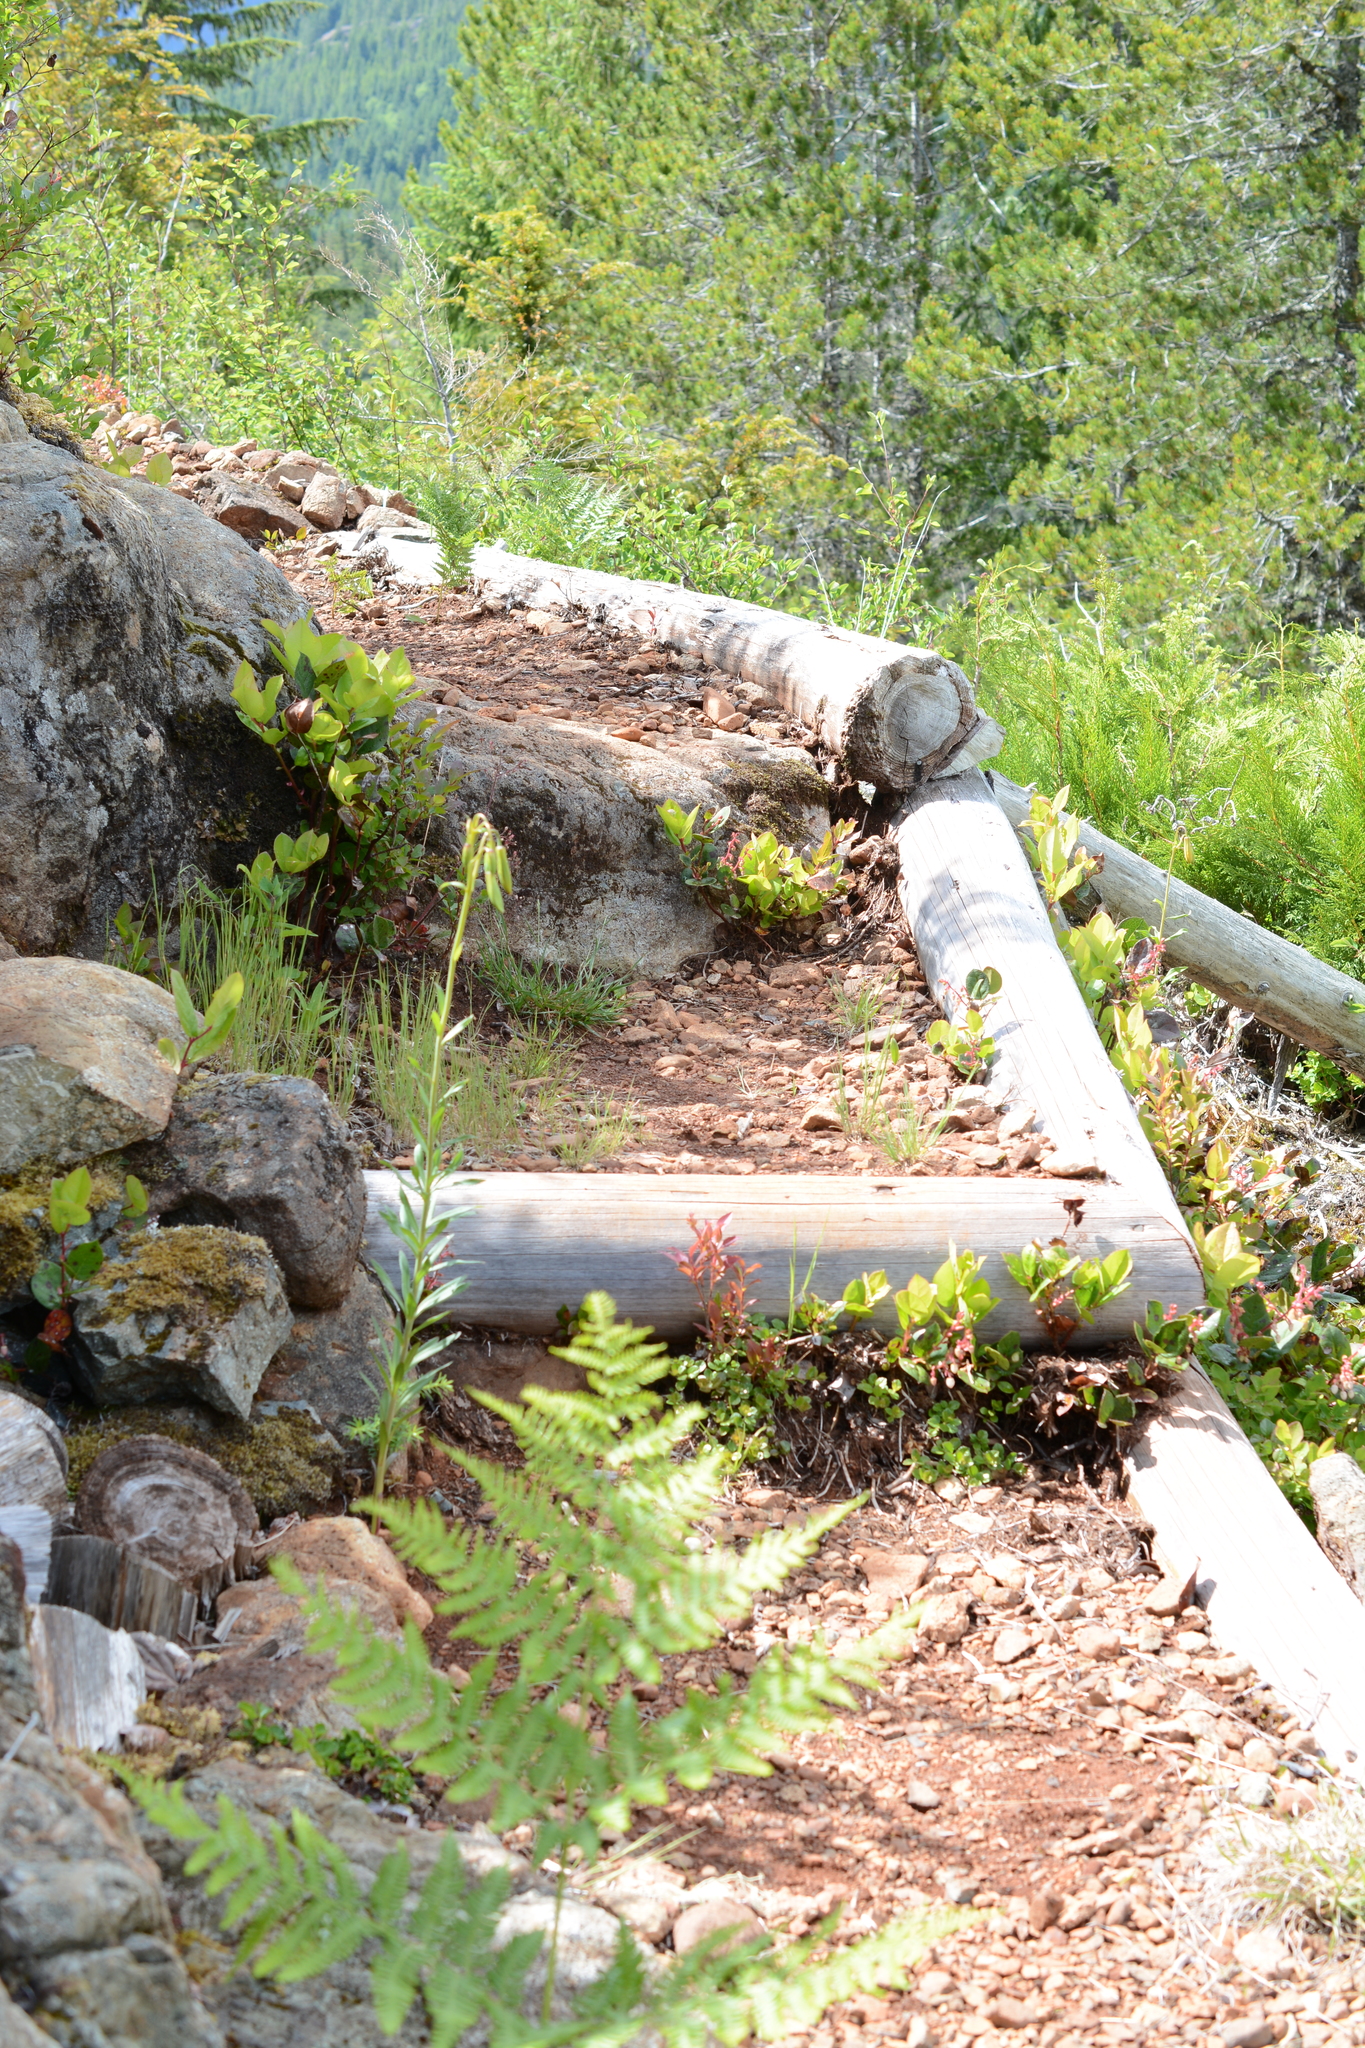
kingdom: Plantae
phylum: Tracheophyta
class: Liliopsida
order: Liliales
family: Liliaceae
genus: Lilium
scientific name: Lilium columbianum
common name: Columbia lily
